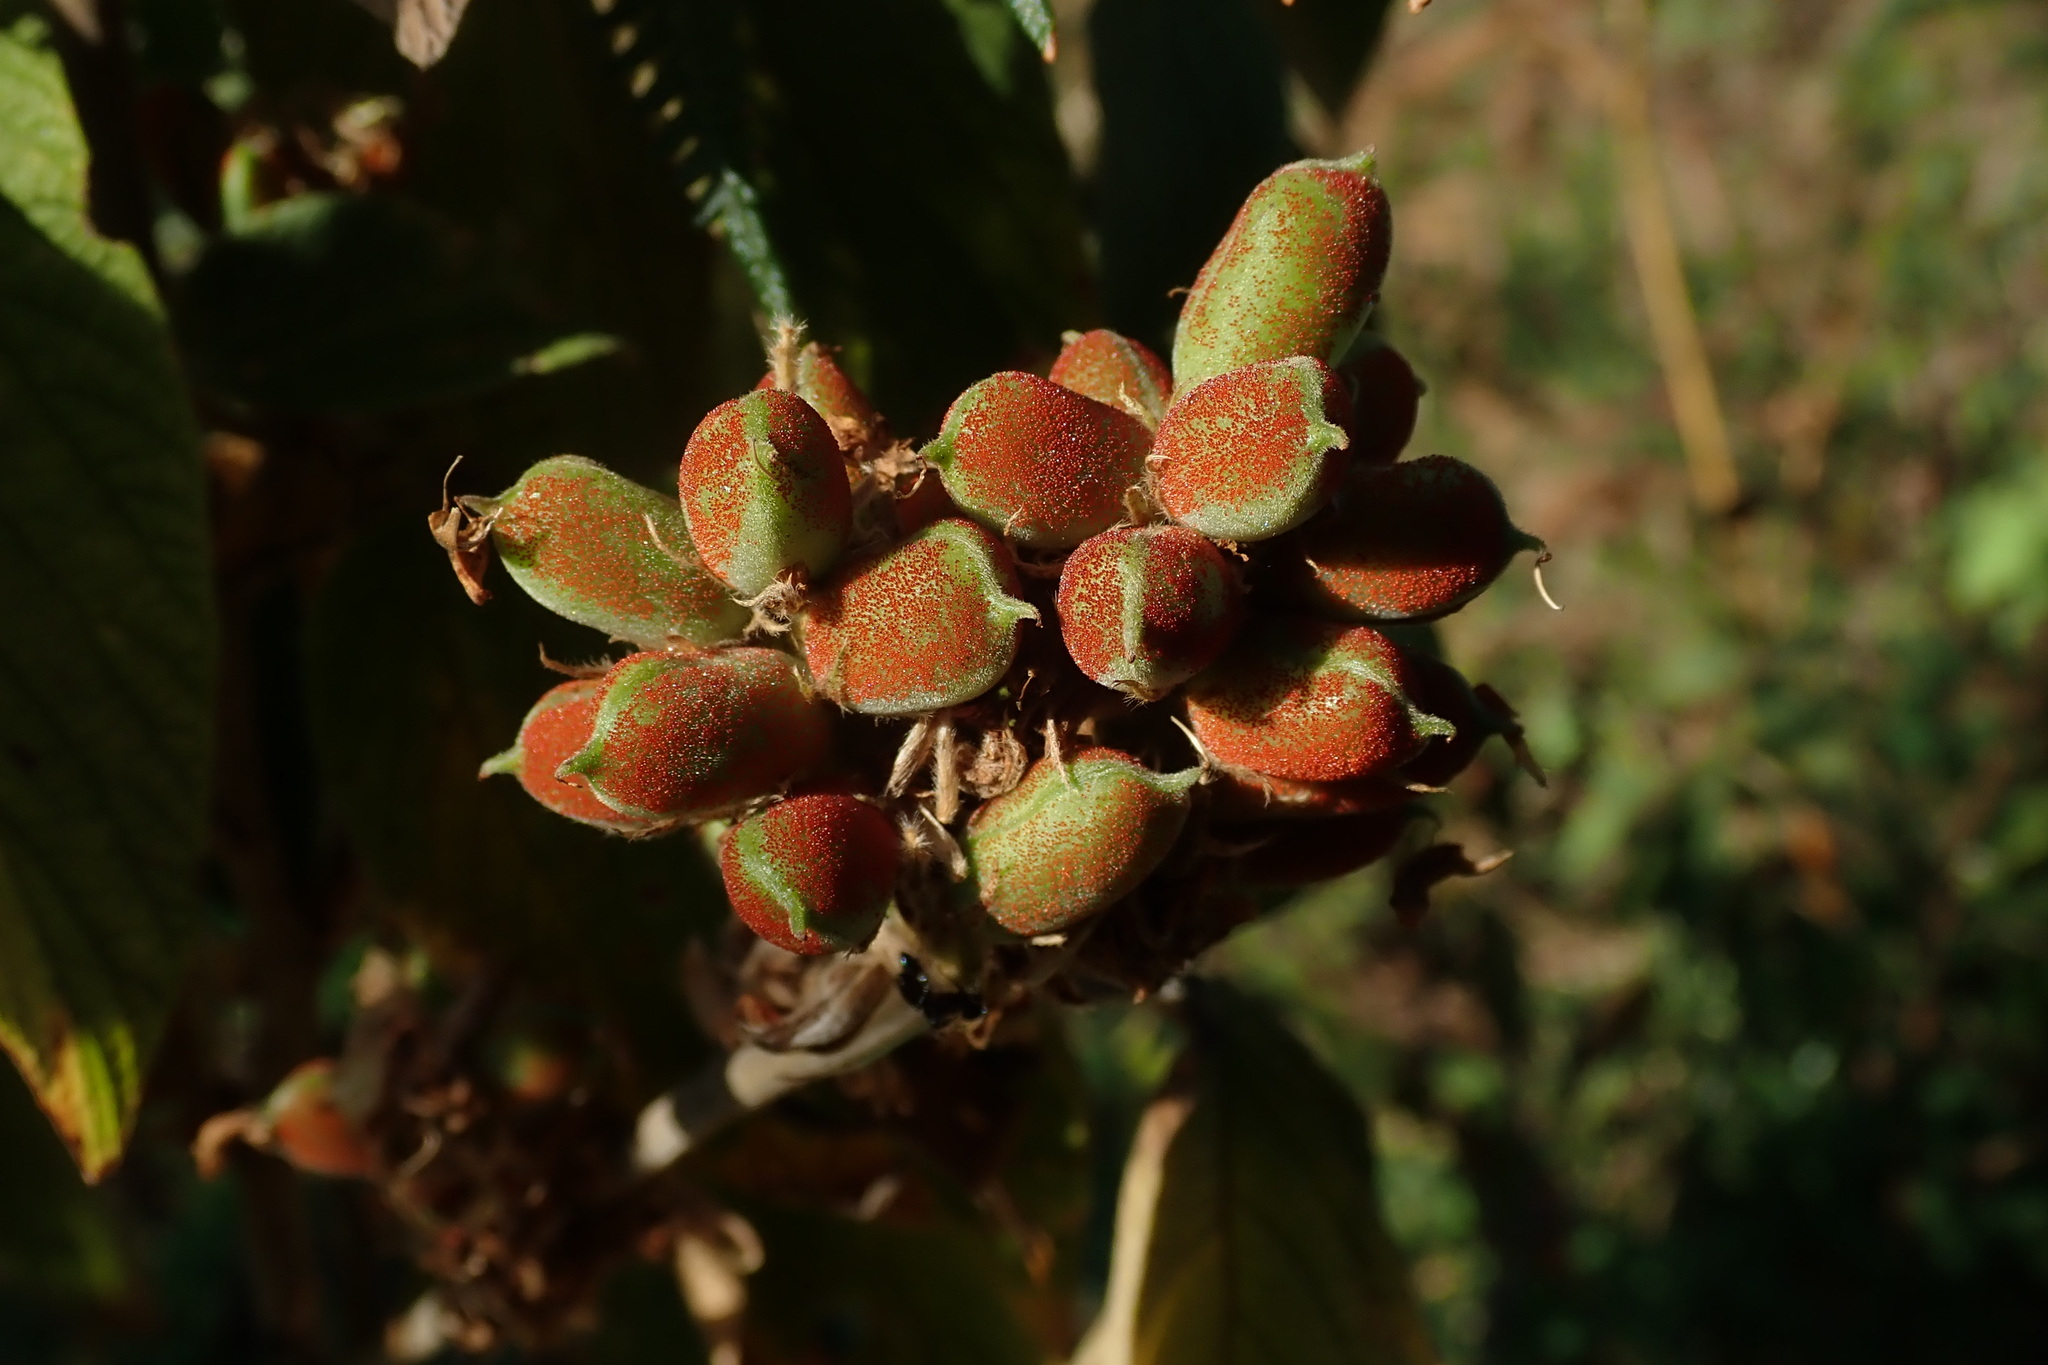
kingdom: Plantae
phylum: Tracheophyta
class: Magnoliopsida
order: Fabales
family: Fabaceae
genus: Flemingia
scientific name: Flemingia grahamiana
